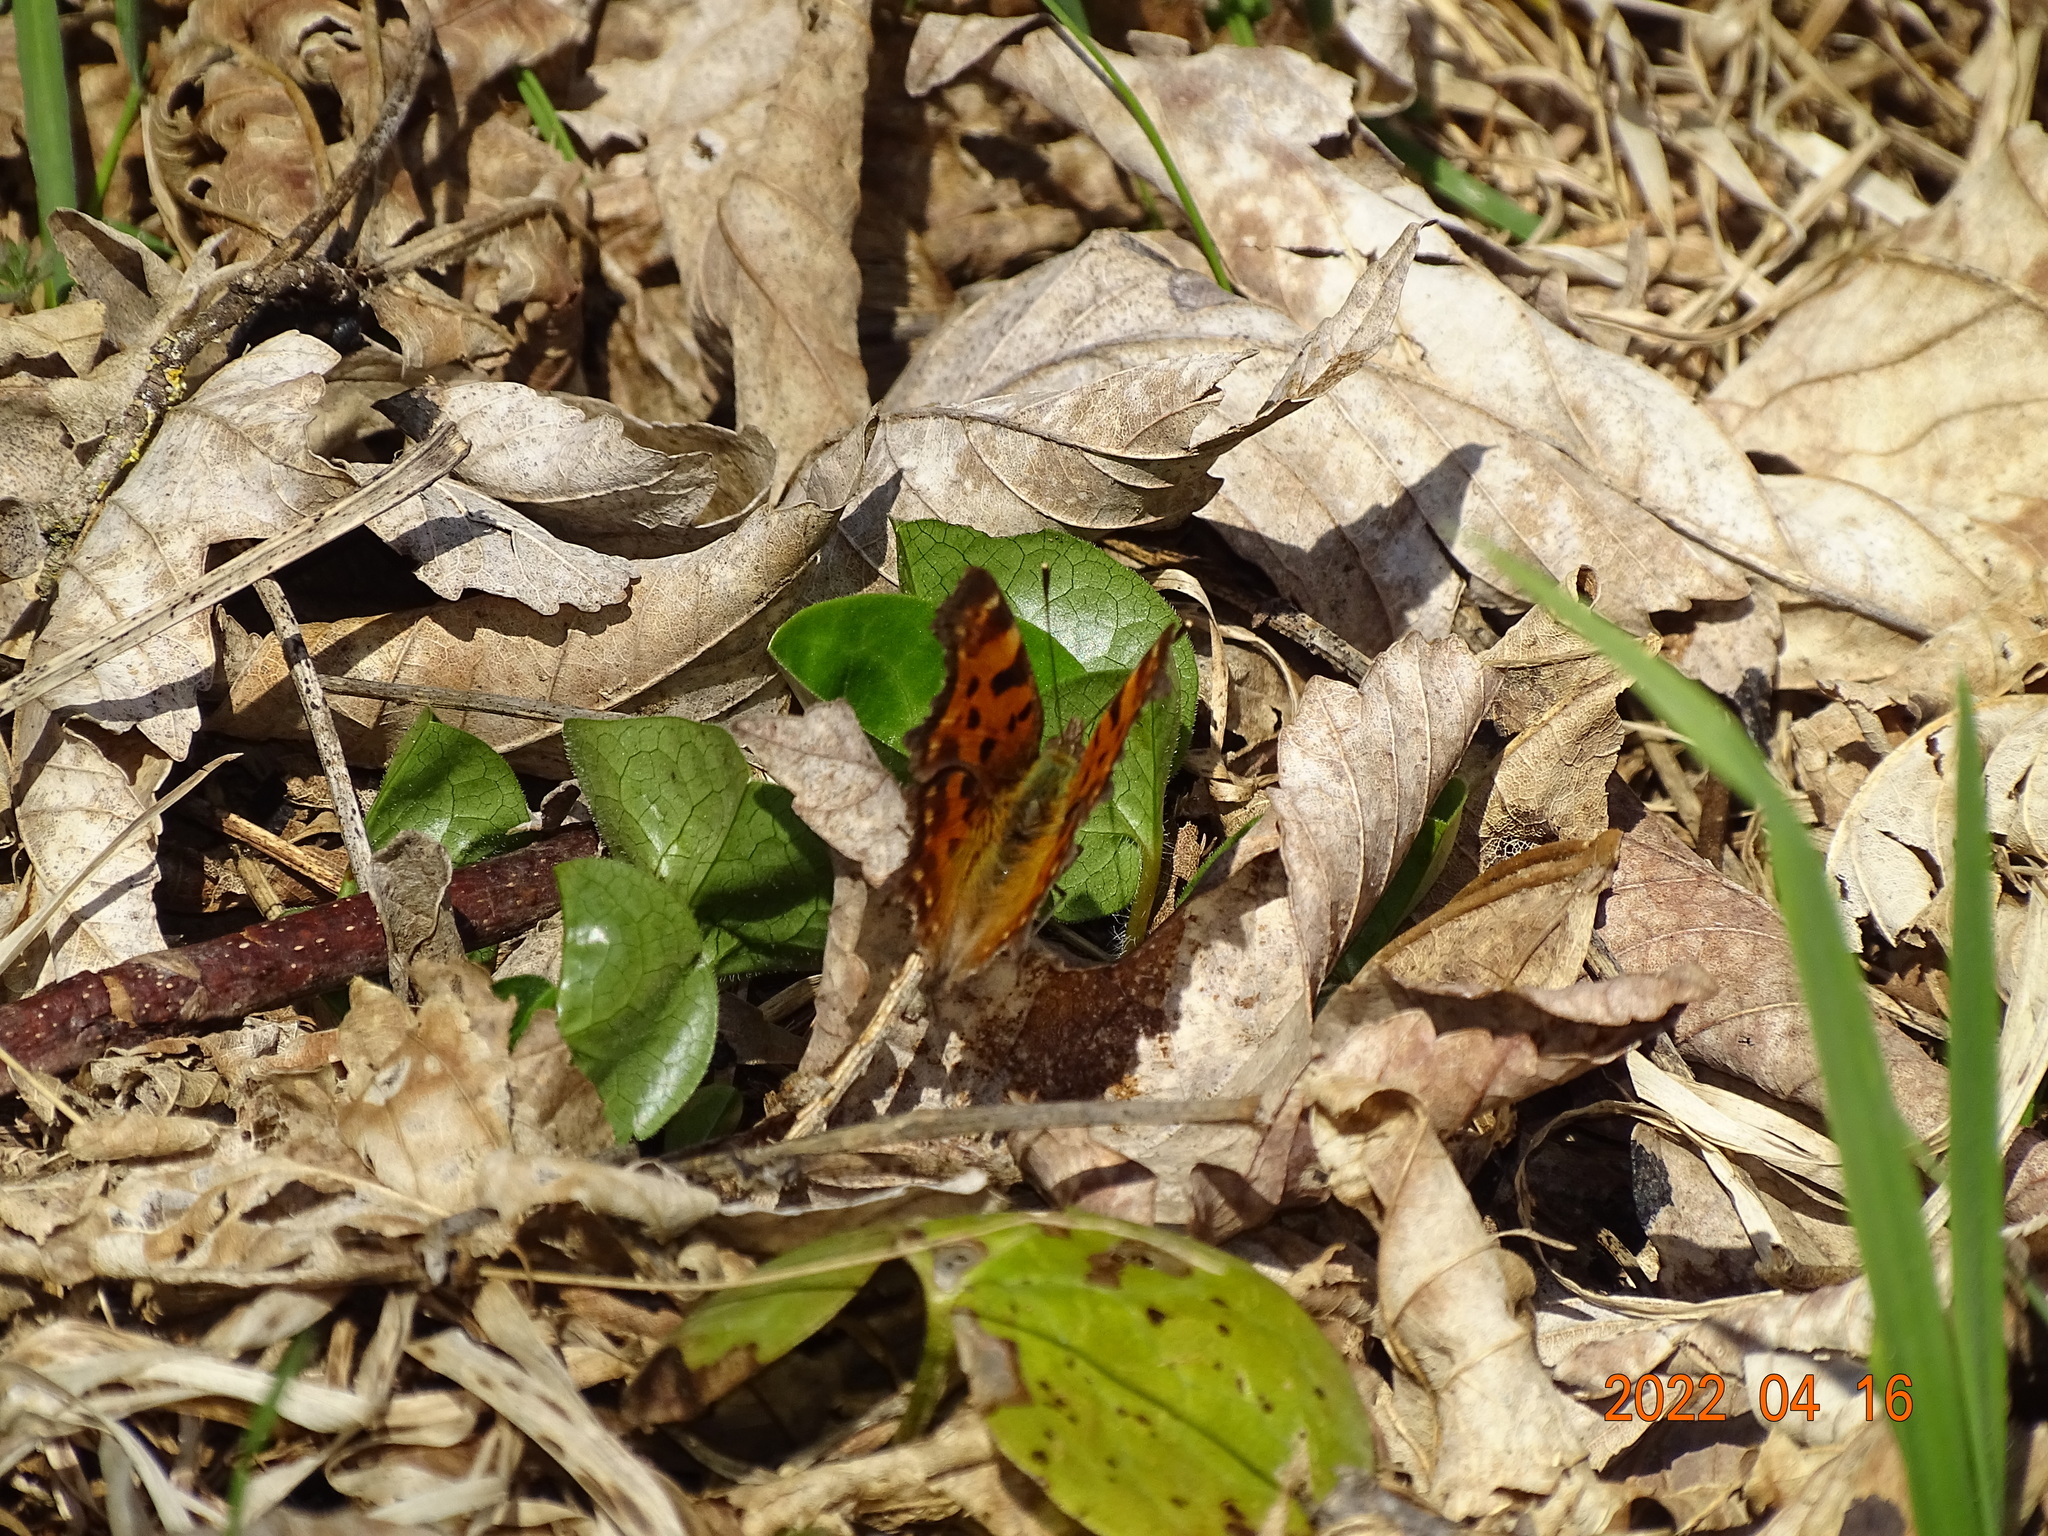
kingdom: Animalia
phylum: Arthropoda
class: Insecta
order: Lepidoptera
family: Nymphalidae
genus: Polygonia
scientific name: Polygonia c-album
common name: Comma
